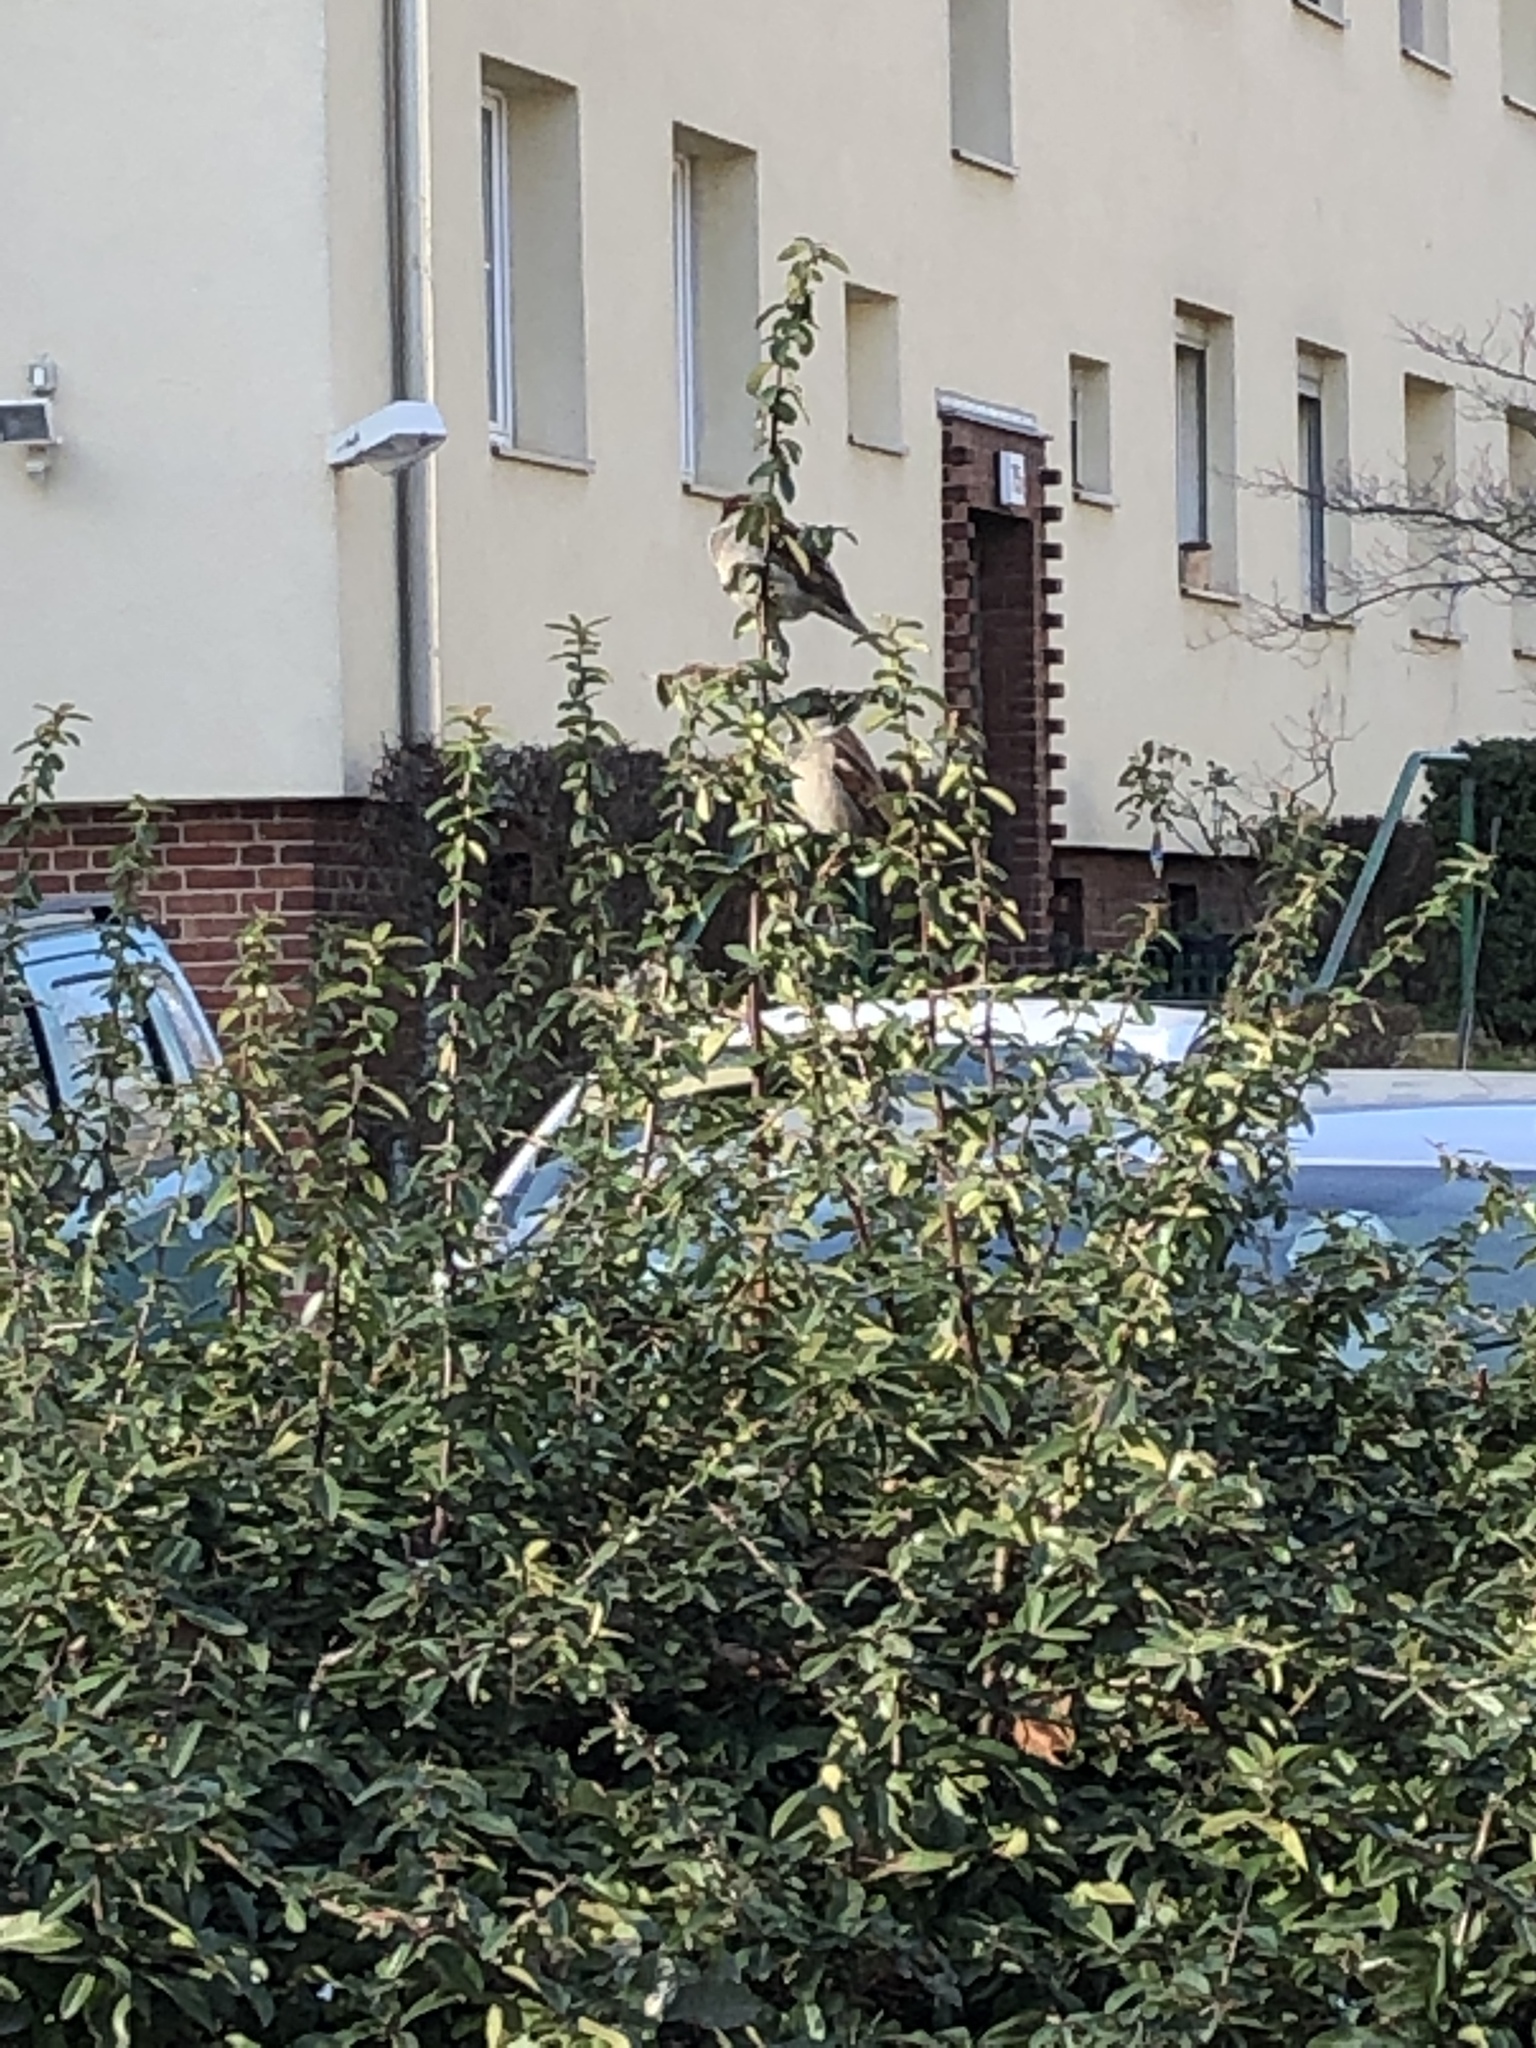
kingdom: Animalia
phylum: Chordata
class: Aves
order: Passeriformes
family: Passeridae
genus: Passer
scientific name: Passer domesticus
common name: House sparrow
